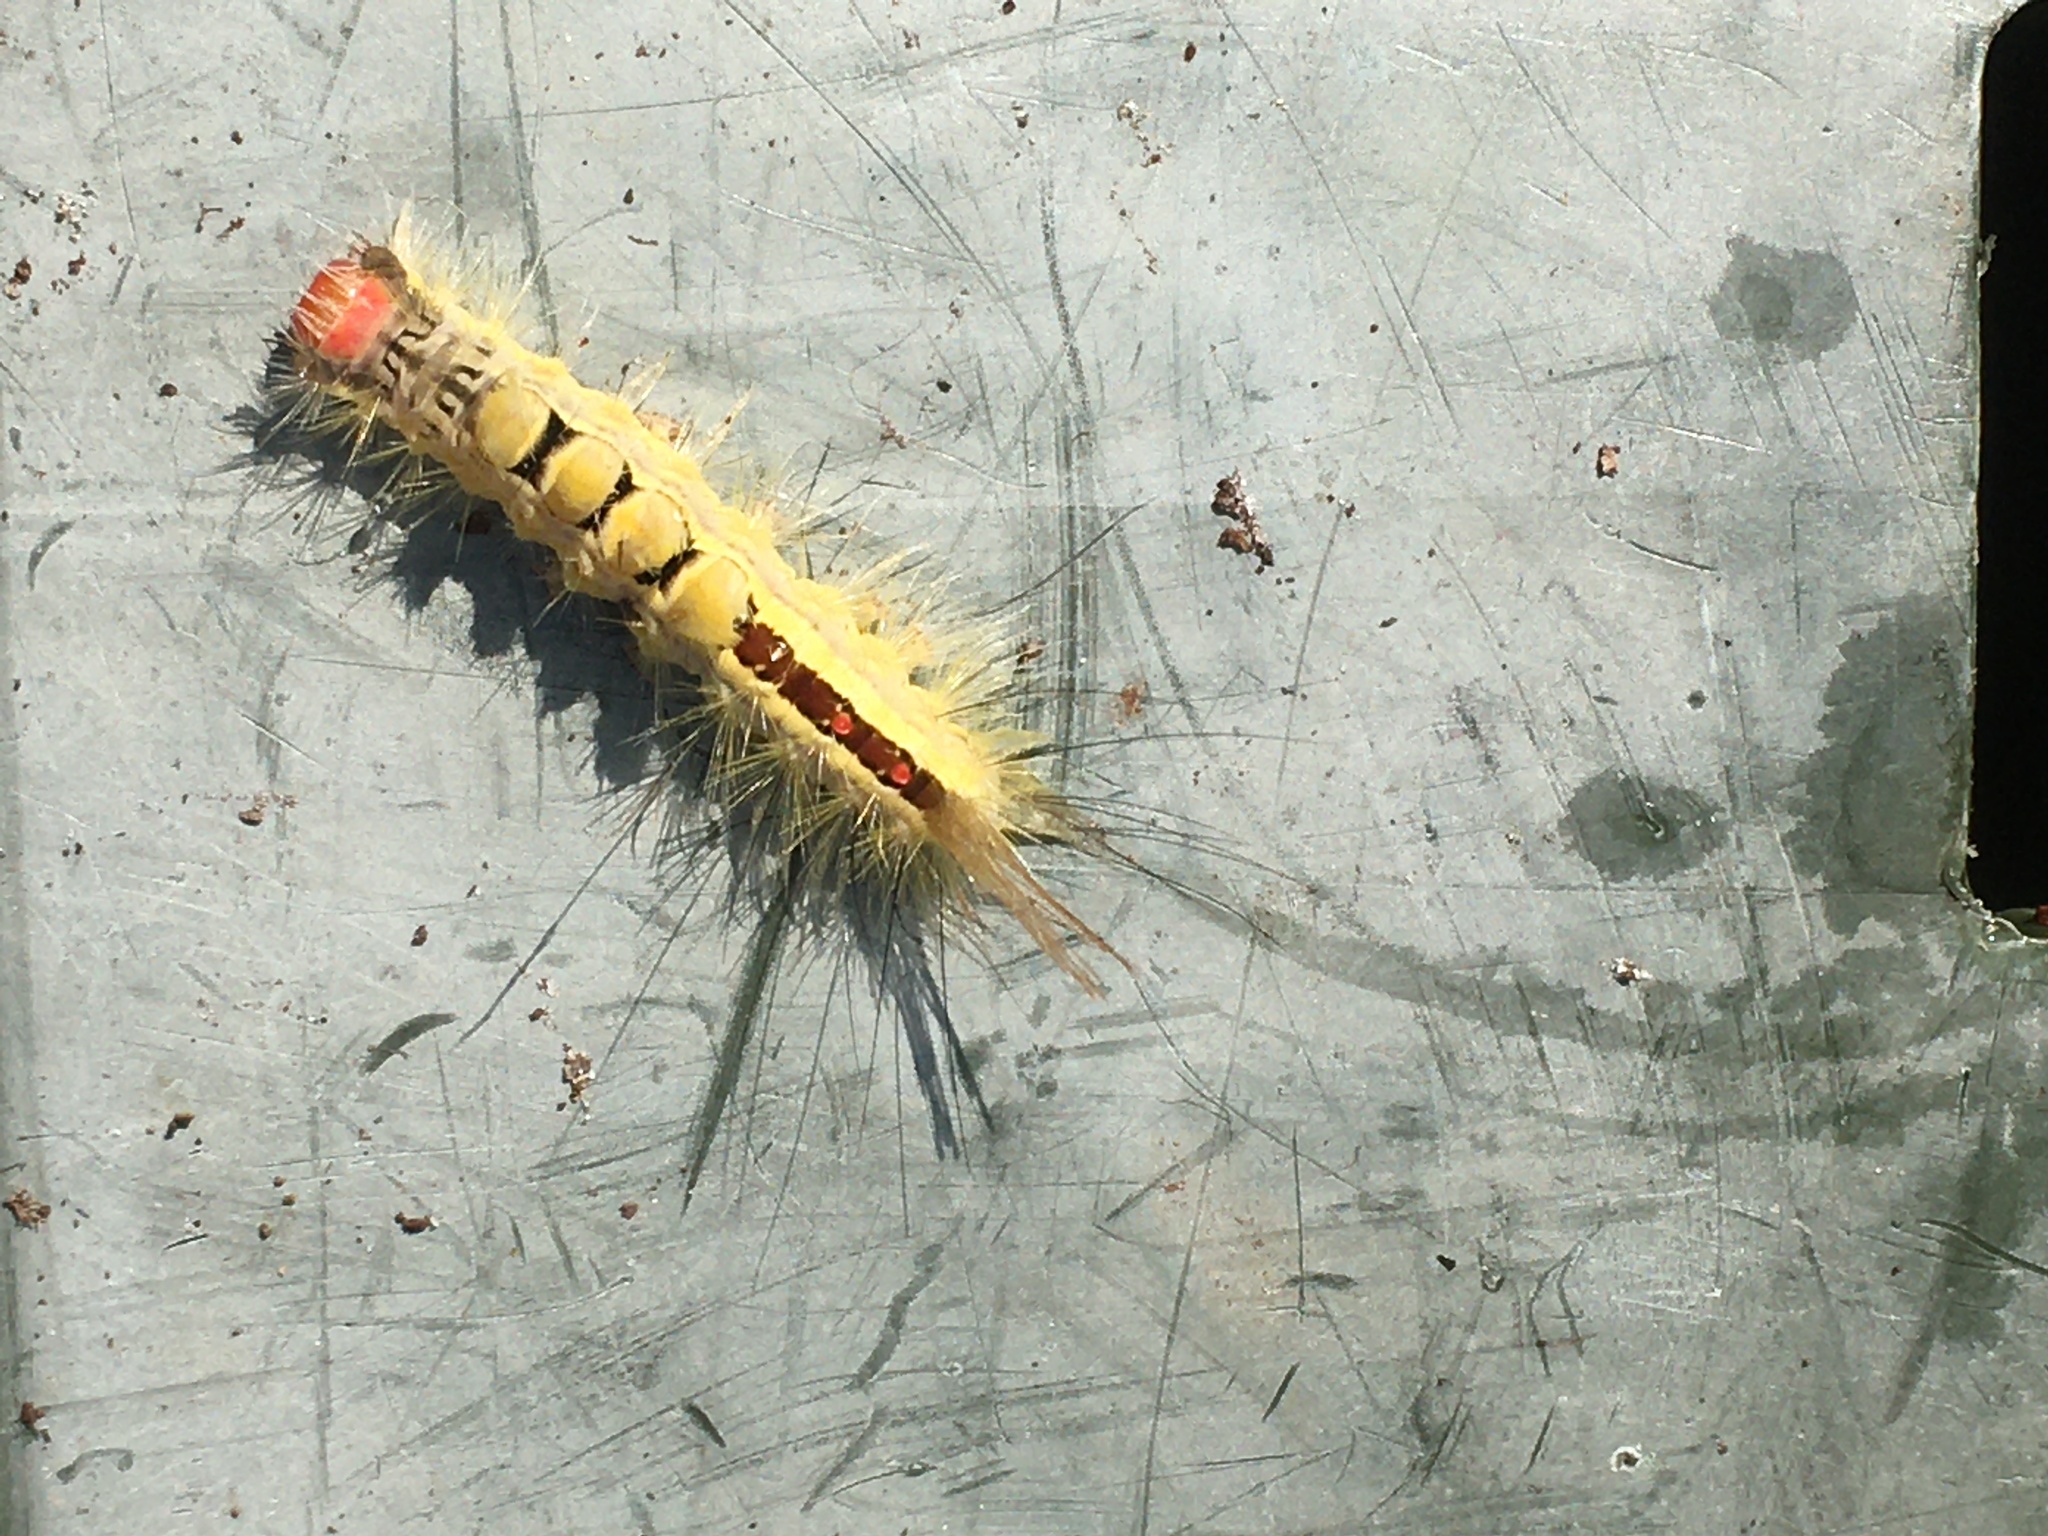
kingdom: Animalia
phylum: Arthropoda
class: Insecta
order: Lepidoptera
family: Erebidae
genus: Orgyia
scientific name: Orgyia leucostigma
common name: White-marked tussock moth
